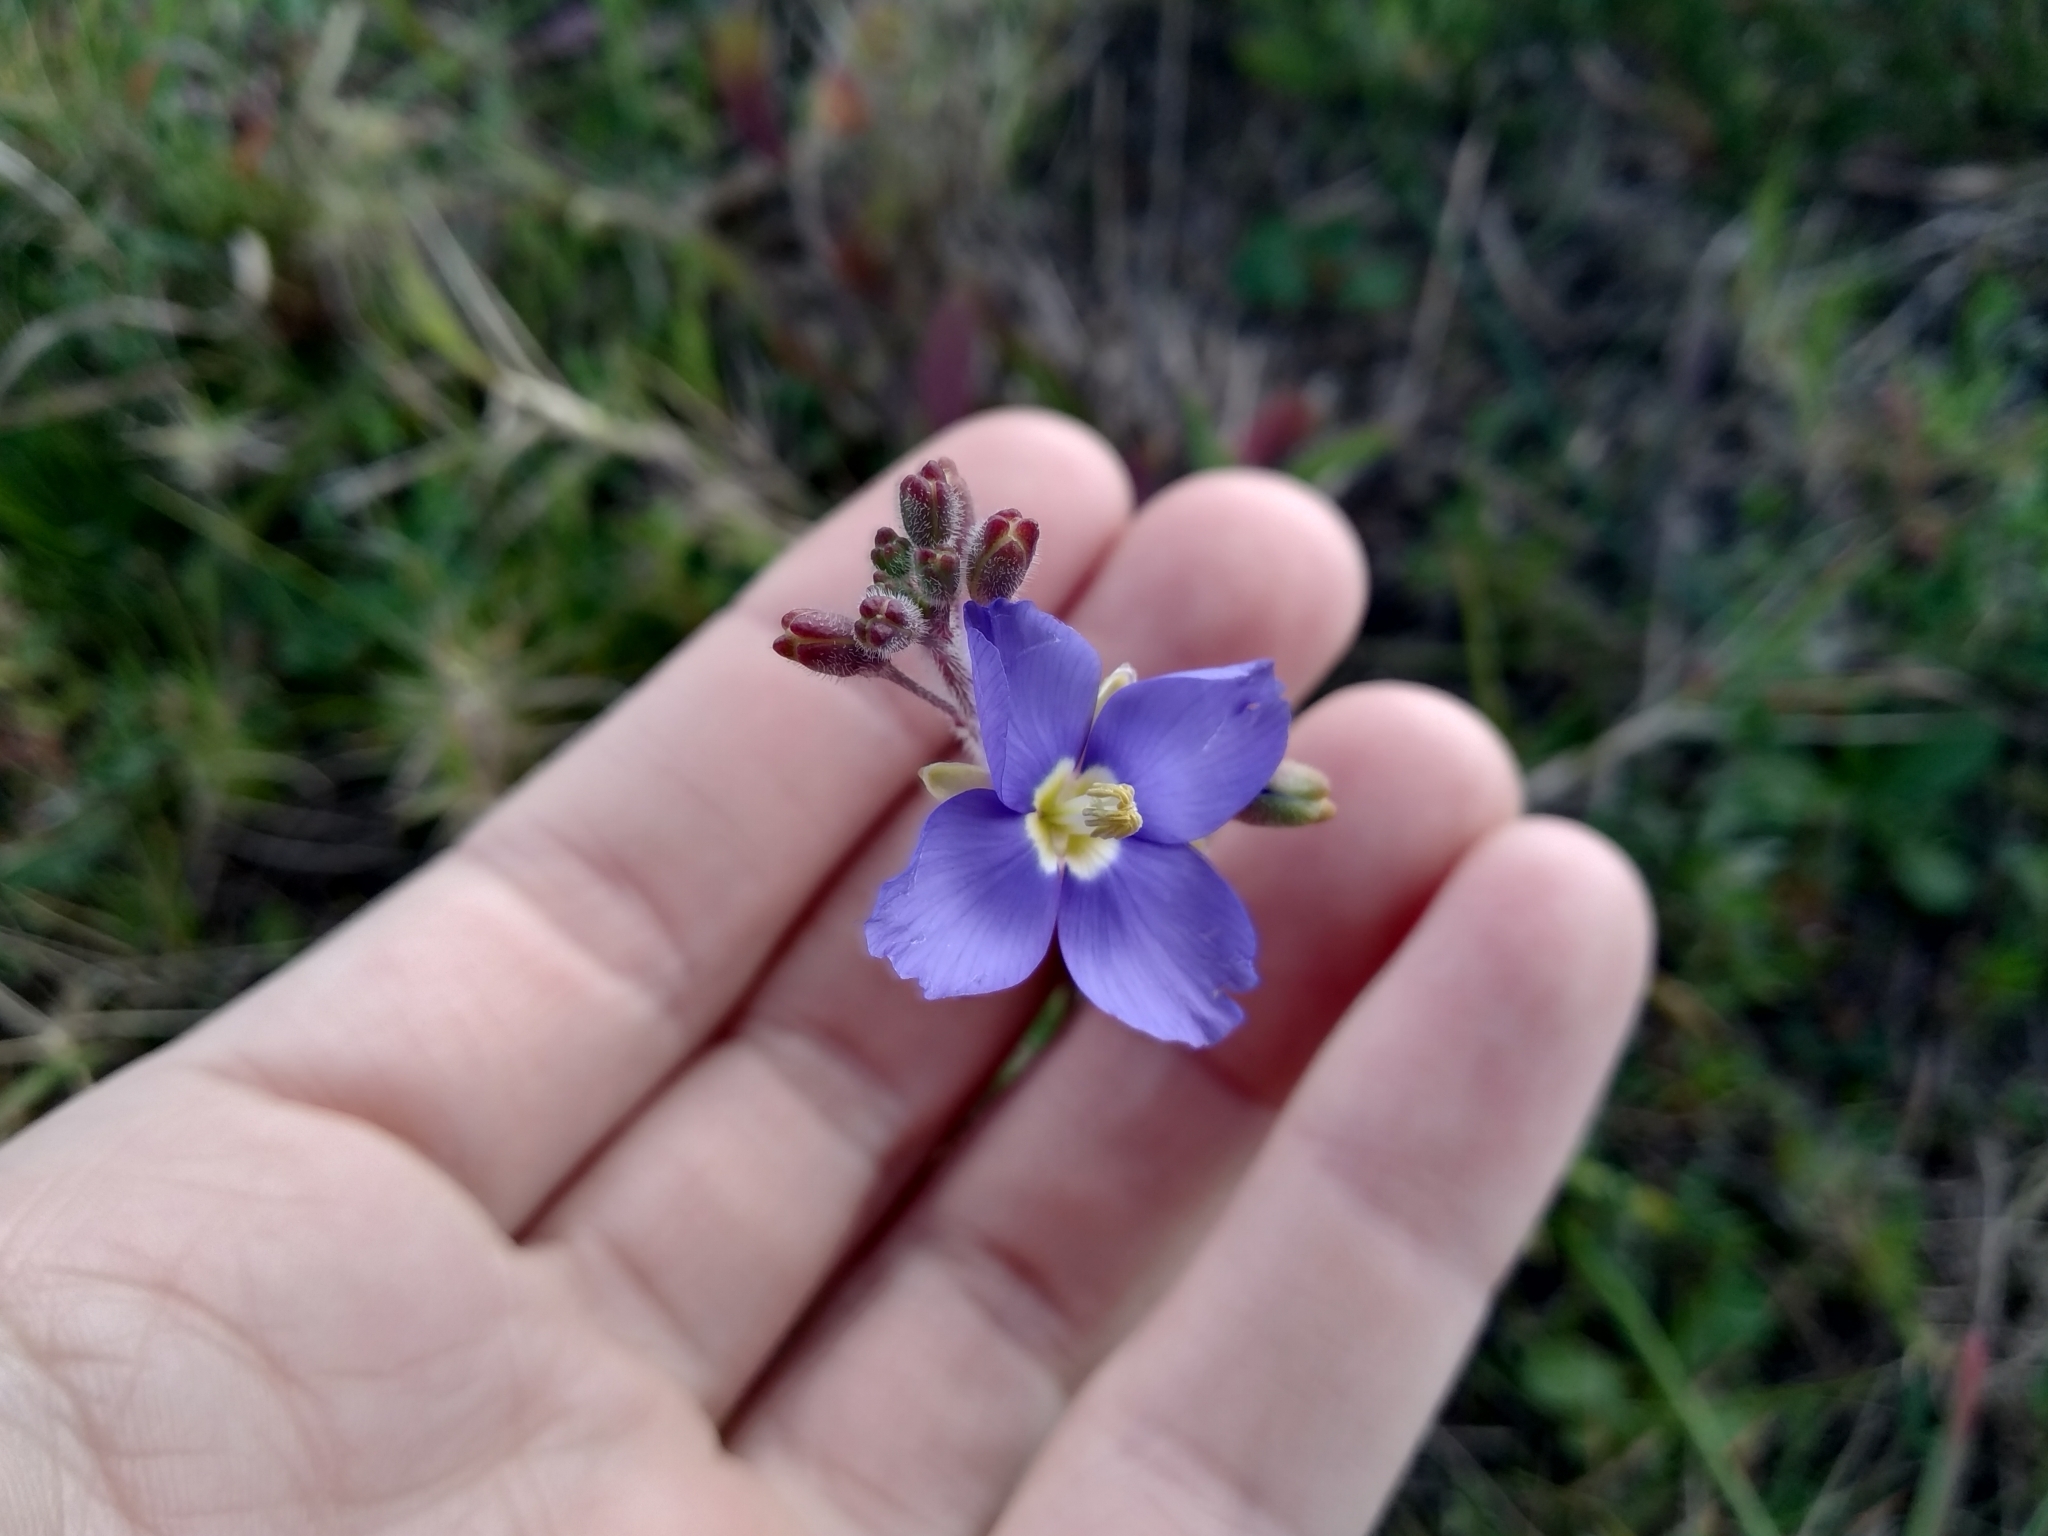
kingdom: Plantae
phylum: Tracheophyta
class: Magnoliopsida
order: Brassicales
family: Brassicaceae
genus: Heliophila
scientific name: Heliophila africana
